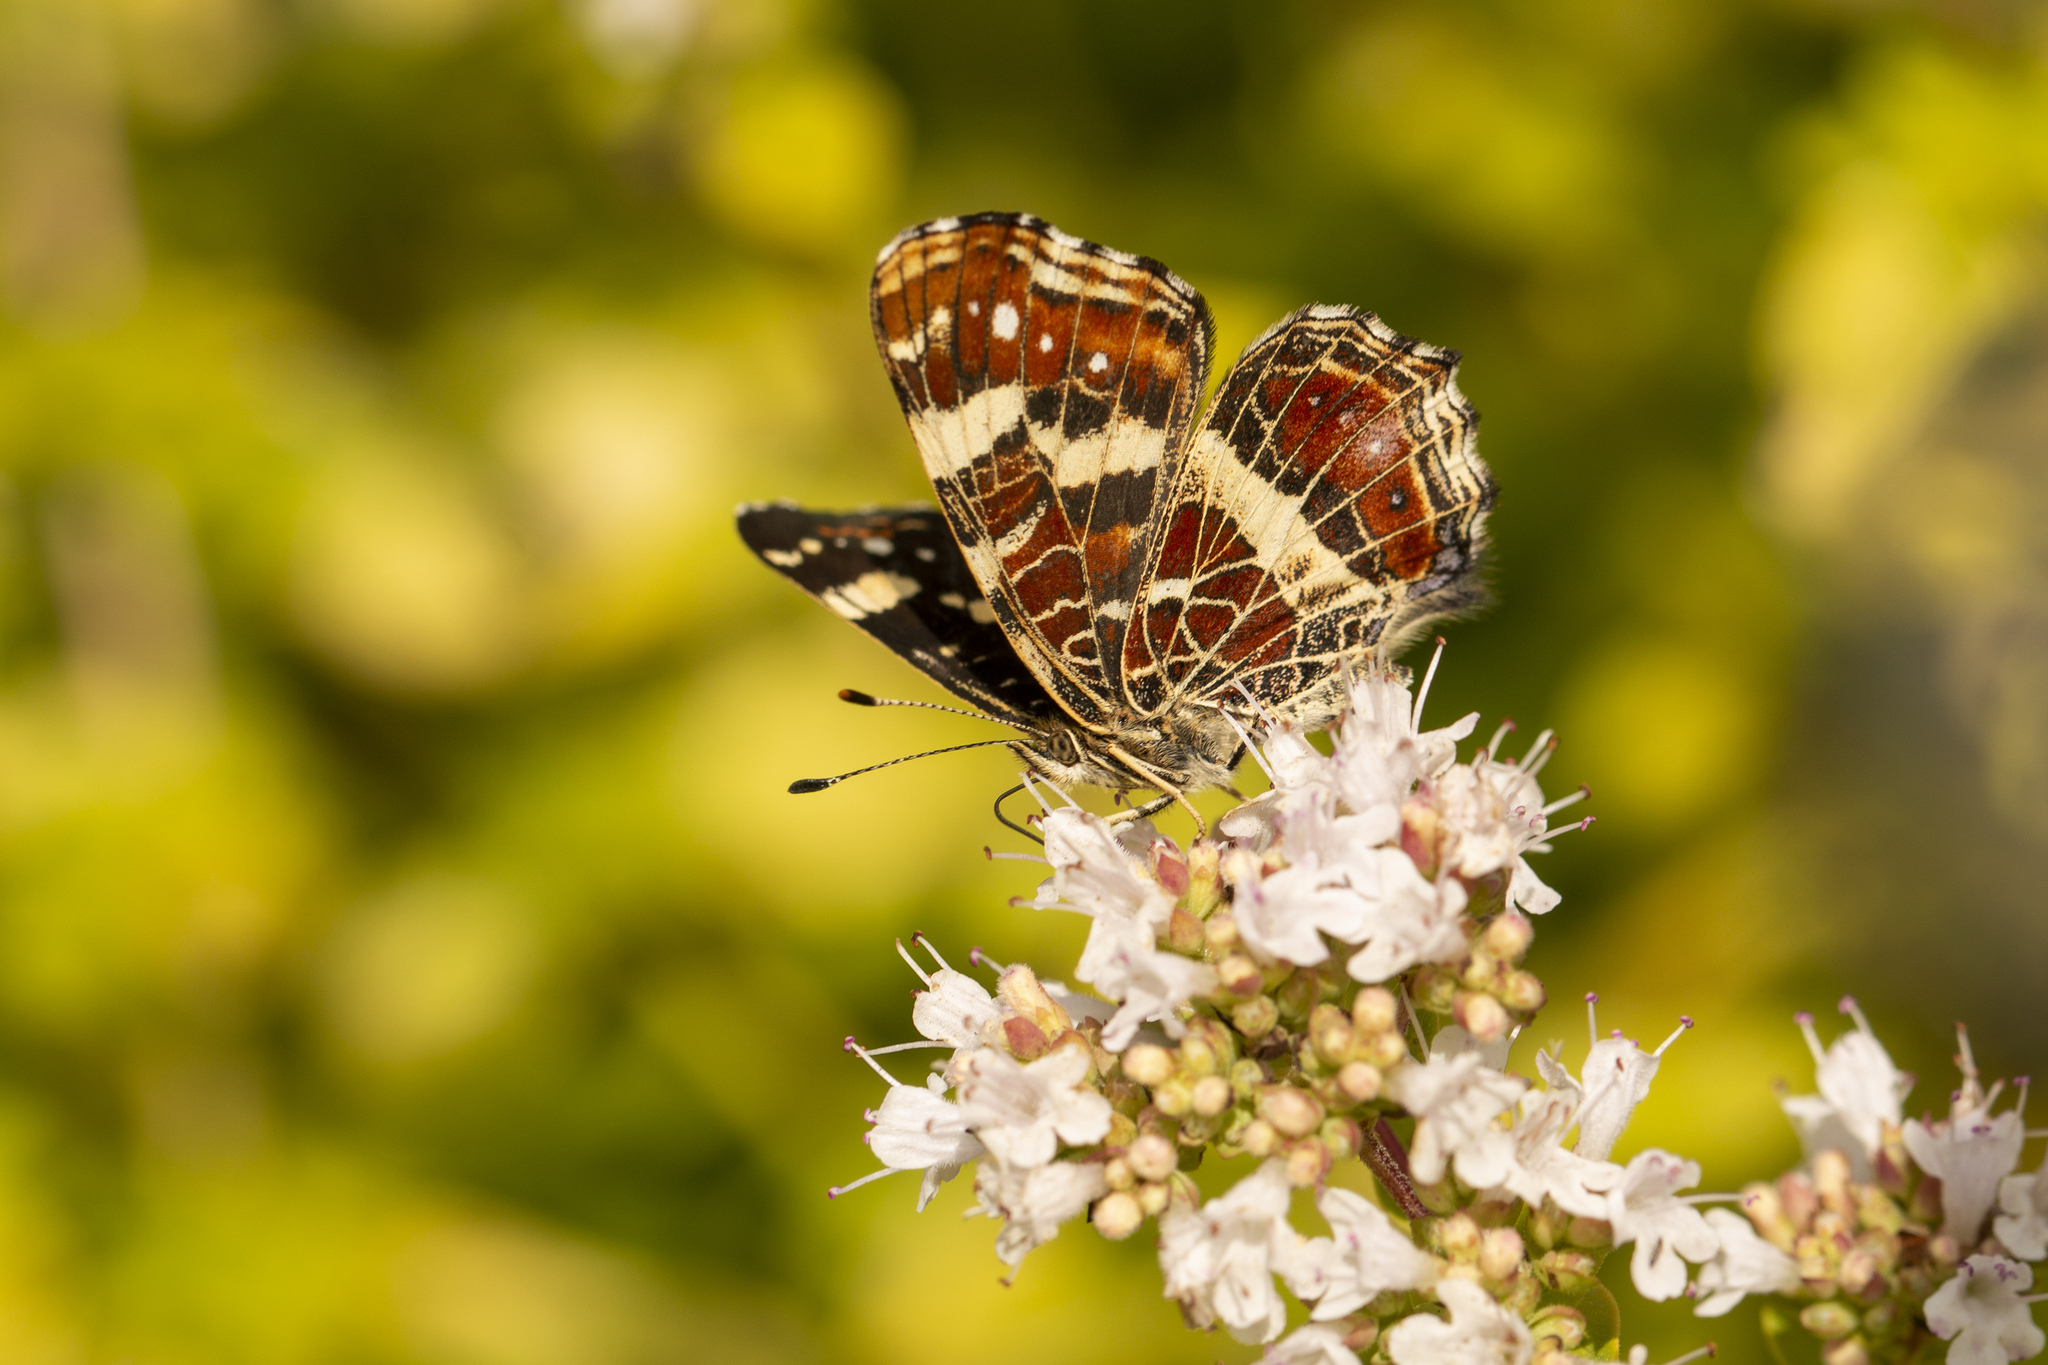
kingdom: Animalia
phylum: Arthropoda
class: Insecta
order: Lepidoptera
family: Nymphalidae
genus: Araschnia
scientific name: Araschnia levana
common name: Map butterfly
